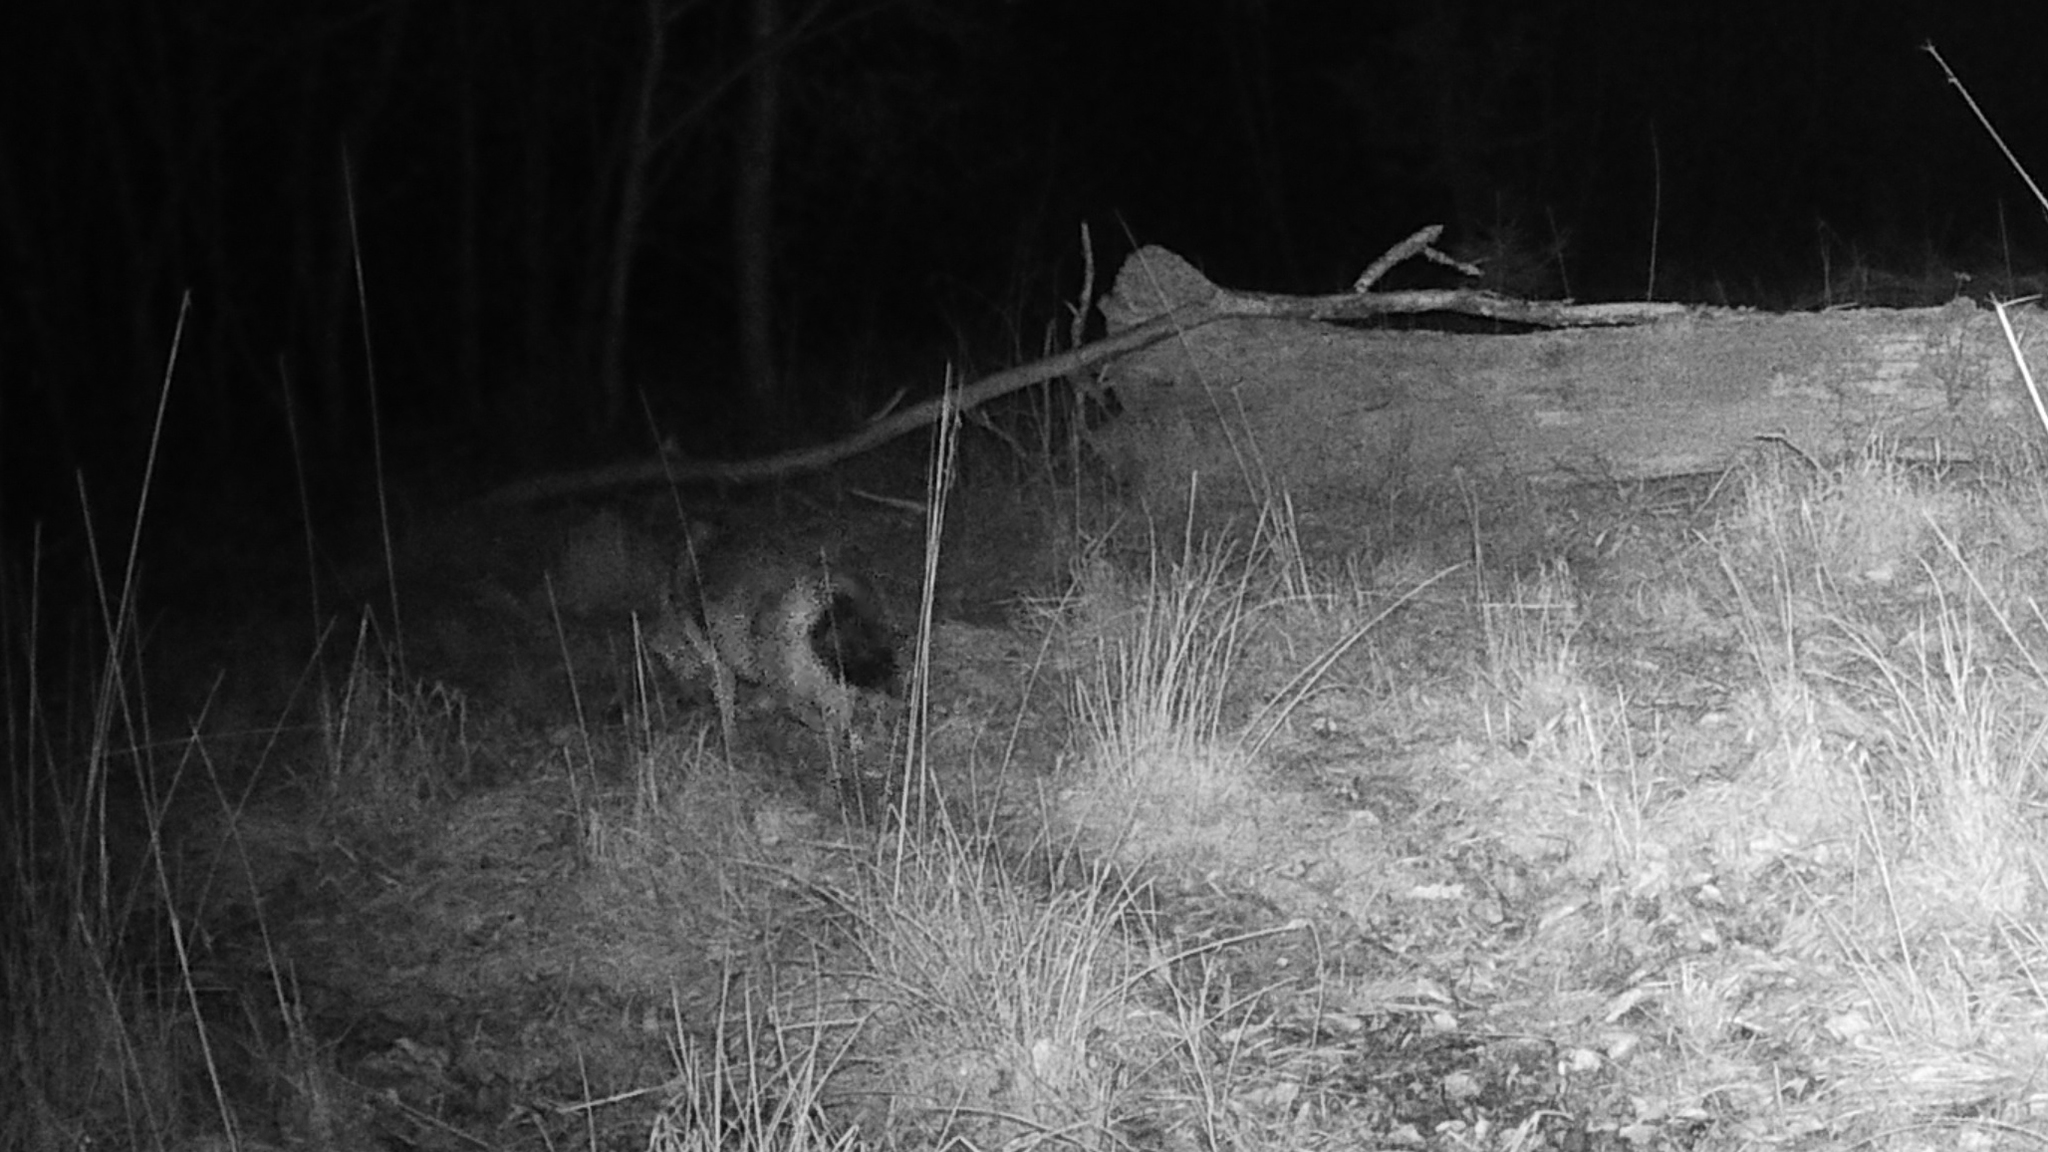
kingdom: Animalia
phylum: Chordata
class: Mammalia
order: Carnivora
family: Canidae
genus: Canis
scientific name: Canis aureus
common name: Golden jackal
